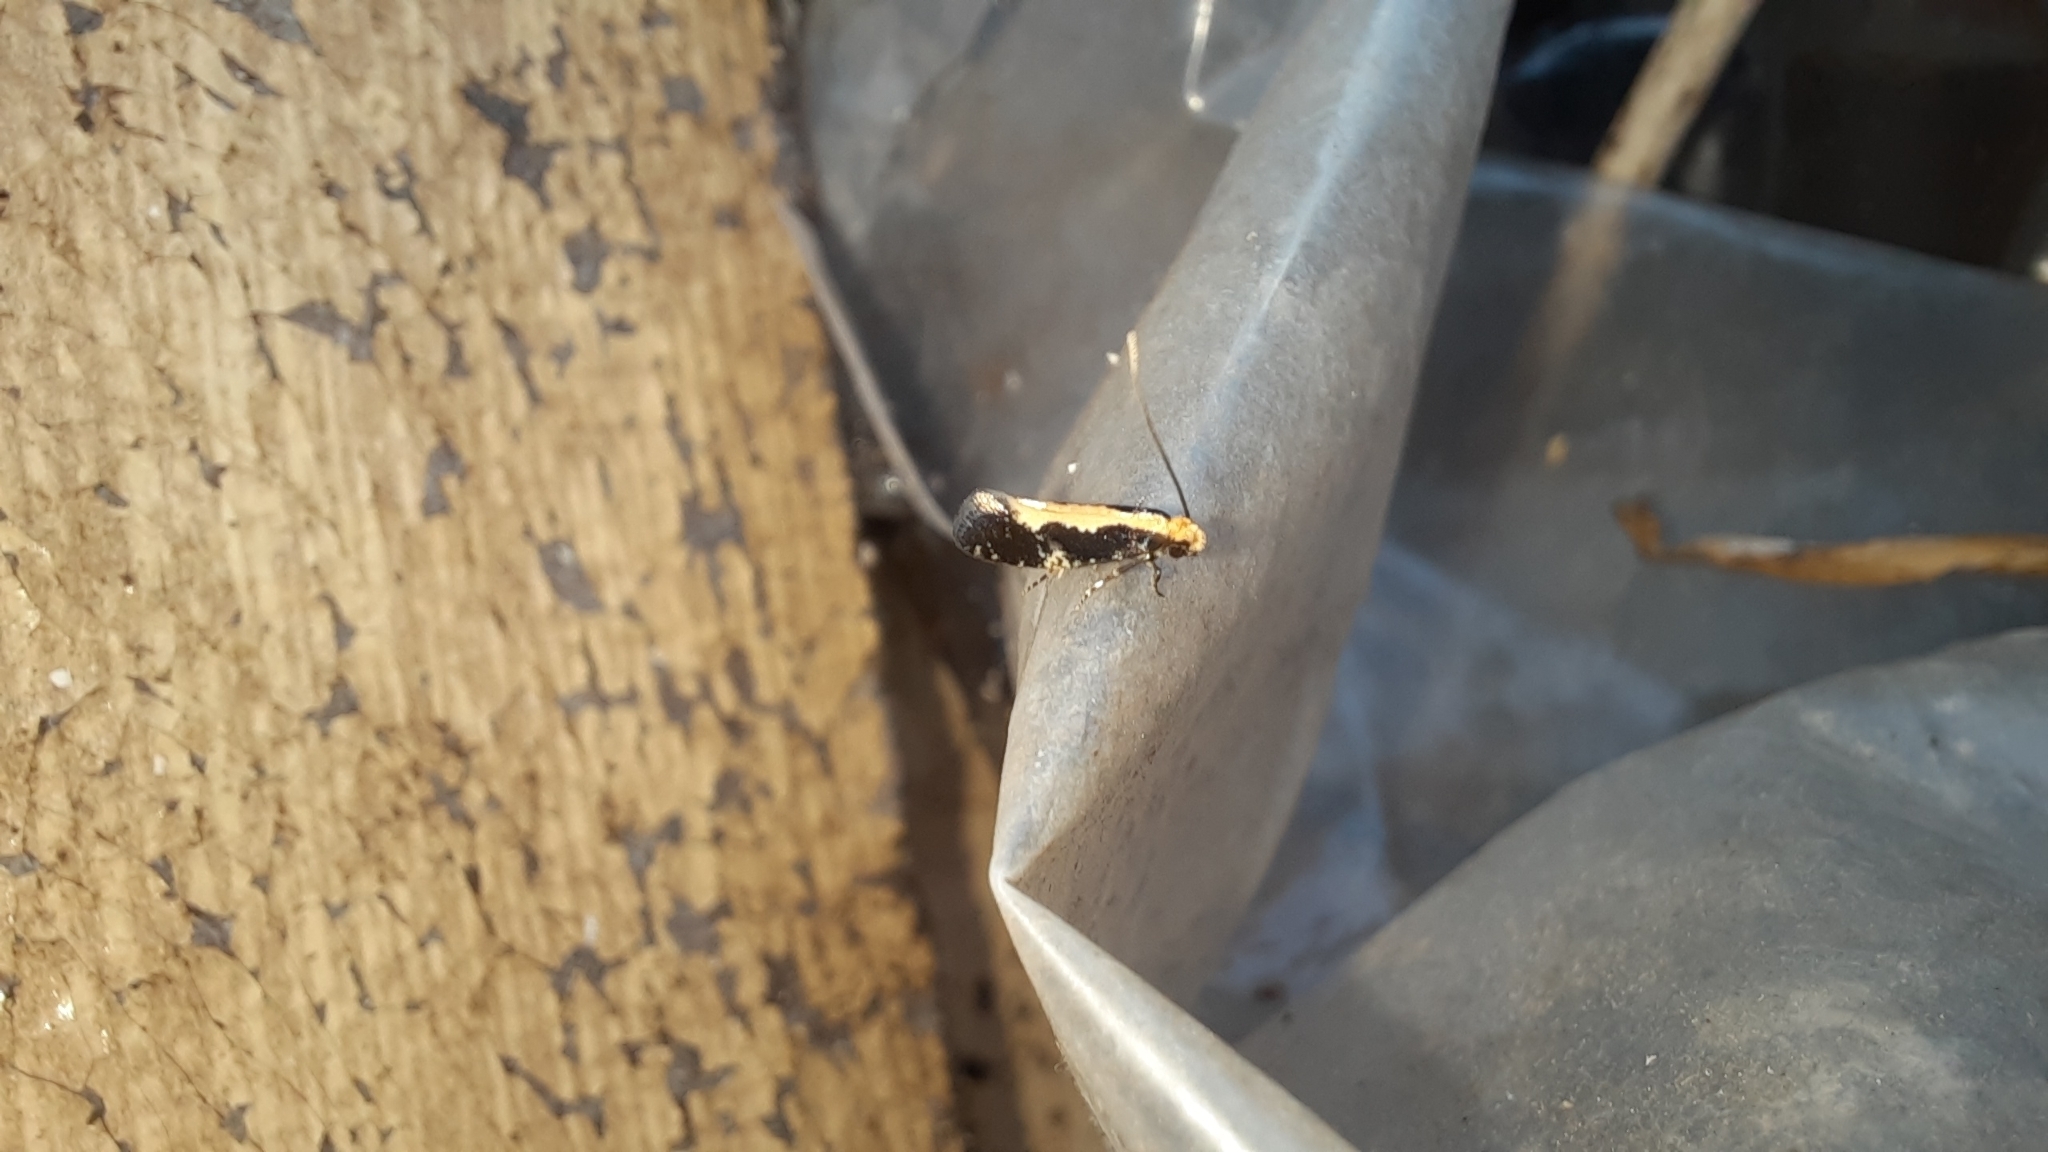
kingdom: Animalia
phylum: Arthropoda
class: Insecta
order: Lepidoptera
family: Tineidae
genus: Monopis
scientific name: Monopis obviella
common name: Tineid moth
